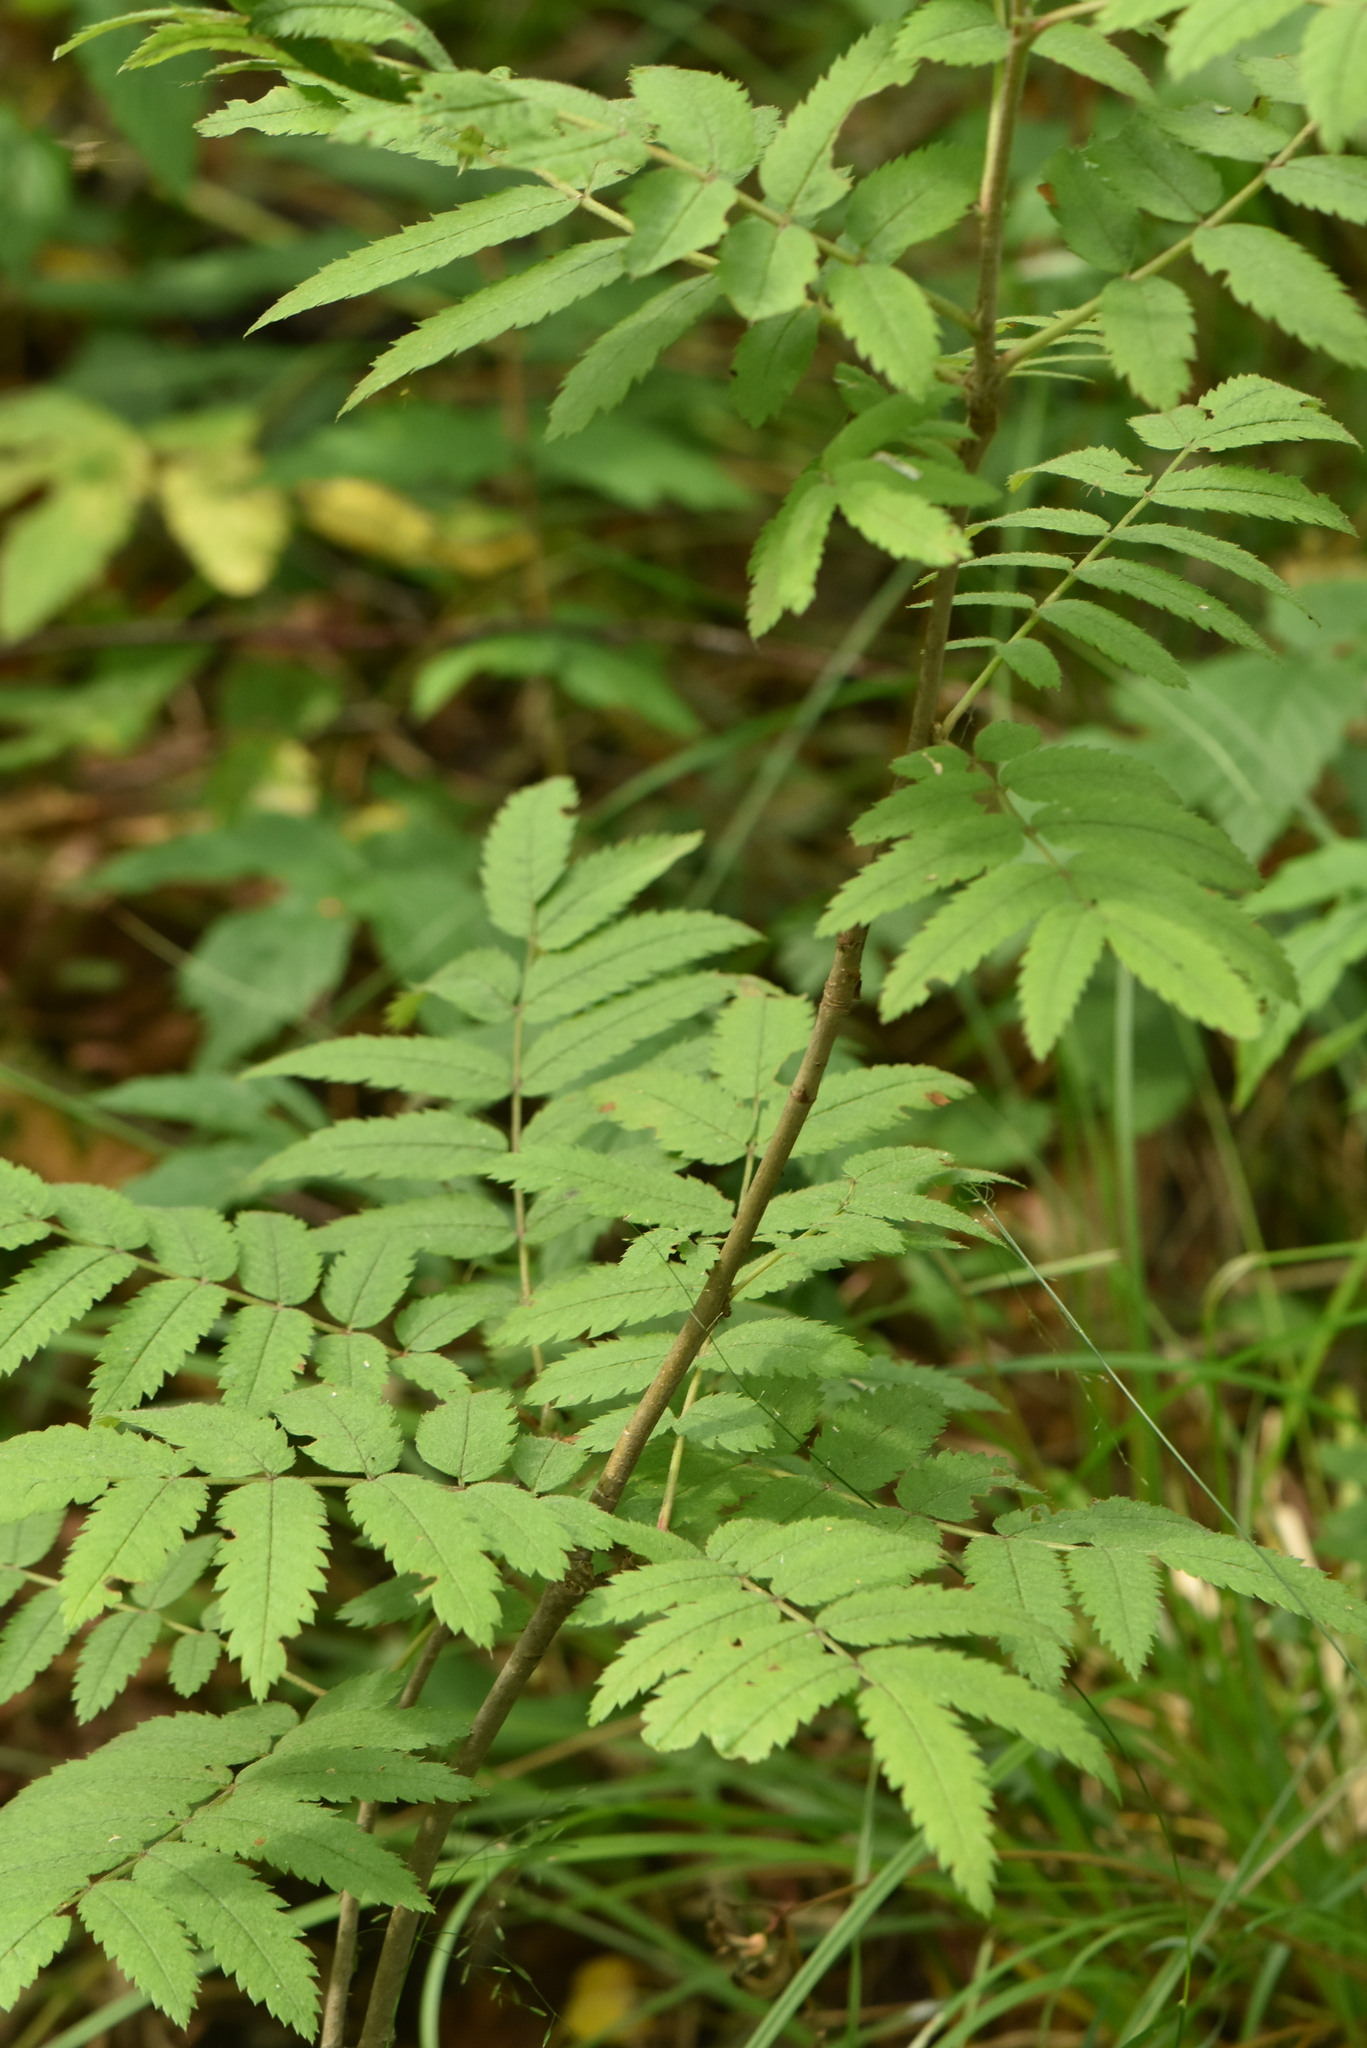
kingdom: Plantae
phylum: Tracheophyta
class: Magnoliopsida
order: Rosales
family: Rosaceae
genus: Sorbus
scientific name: Sorbus aucuparia
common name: Rowan
